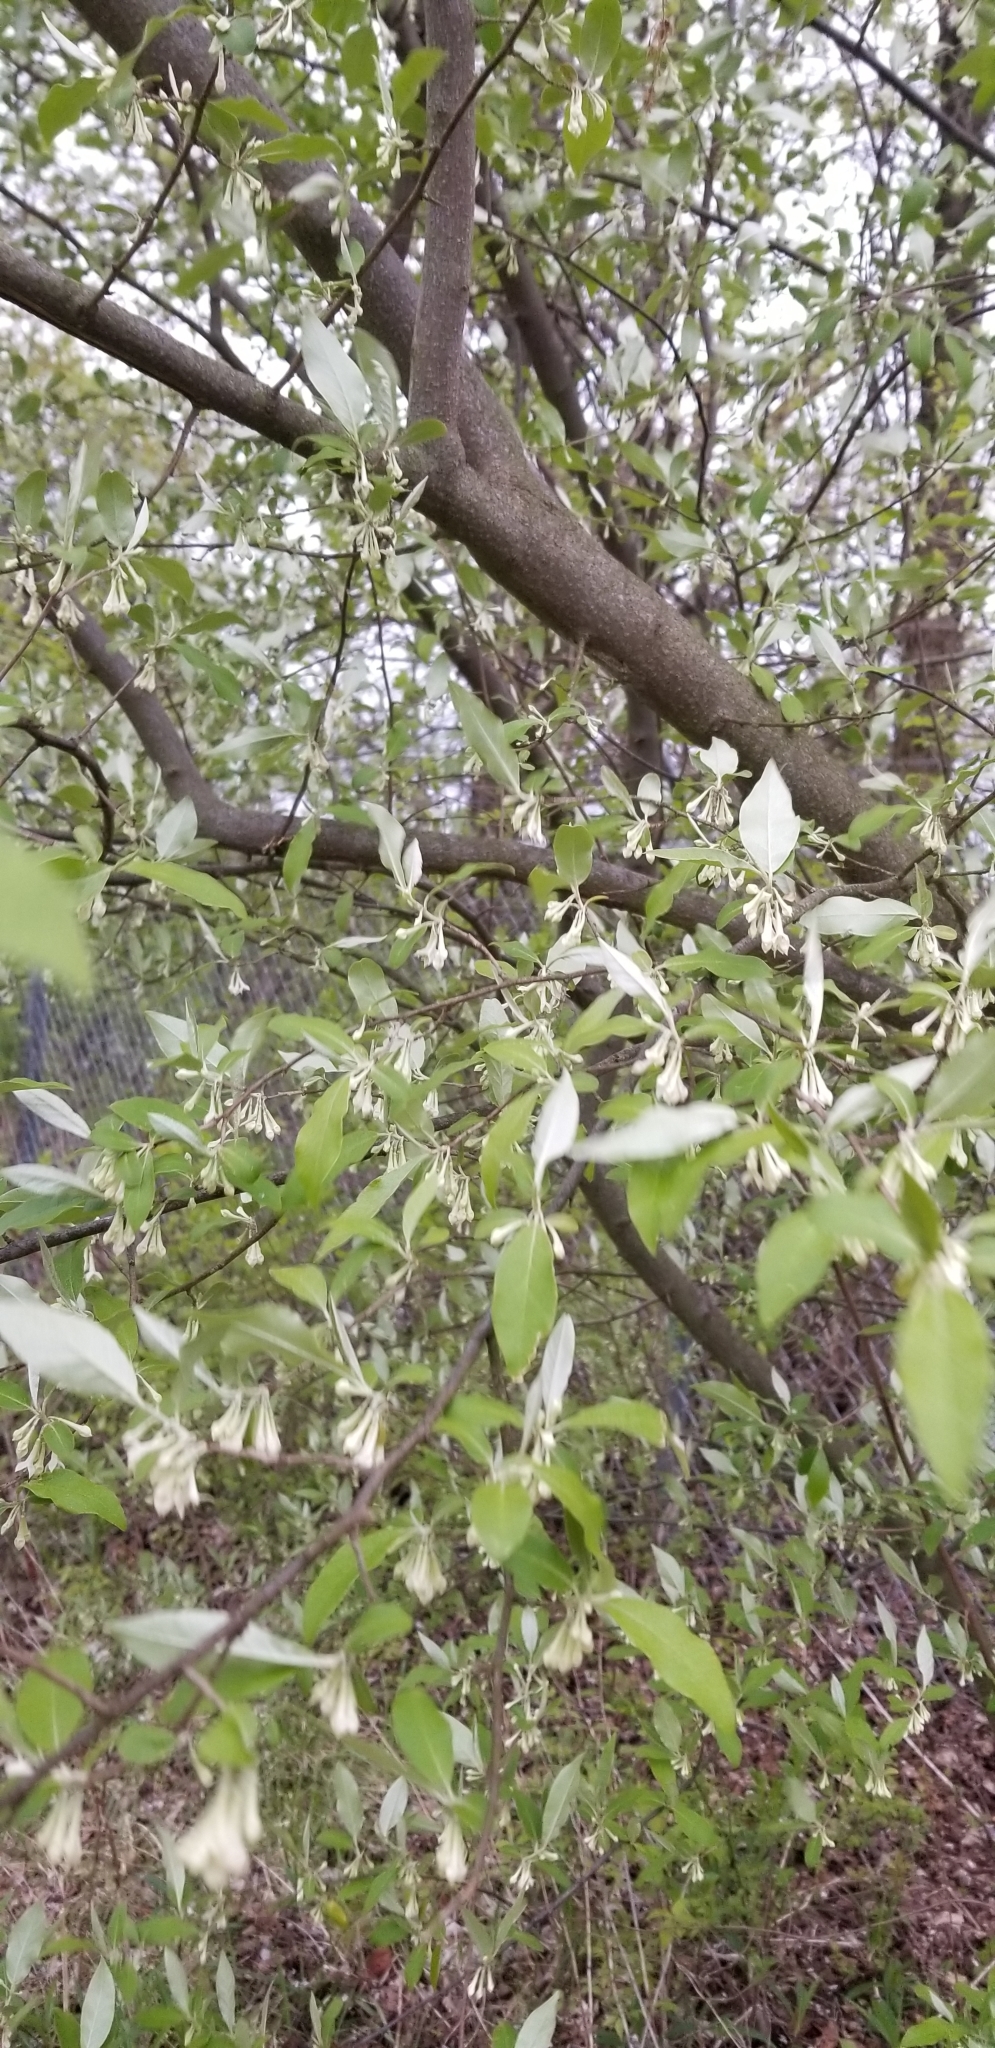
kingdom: Plantae
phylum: Tracheophyta
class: Magnoliopsida
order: Rosales
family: Elaeagnaceae
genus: Elaeagnus
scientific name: Elaeagnus umbellata
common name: Autumn olive
